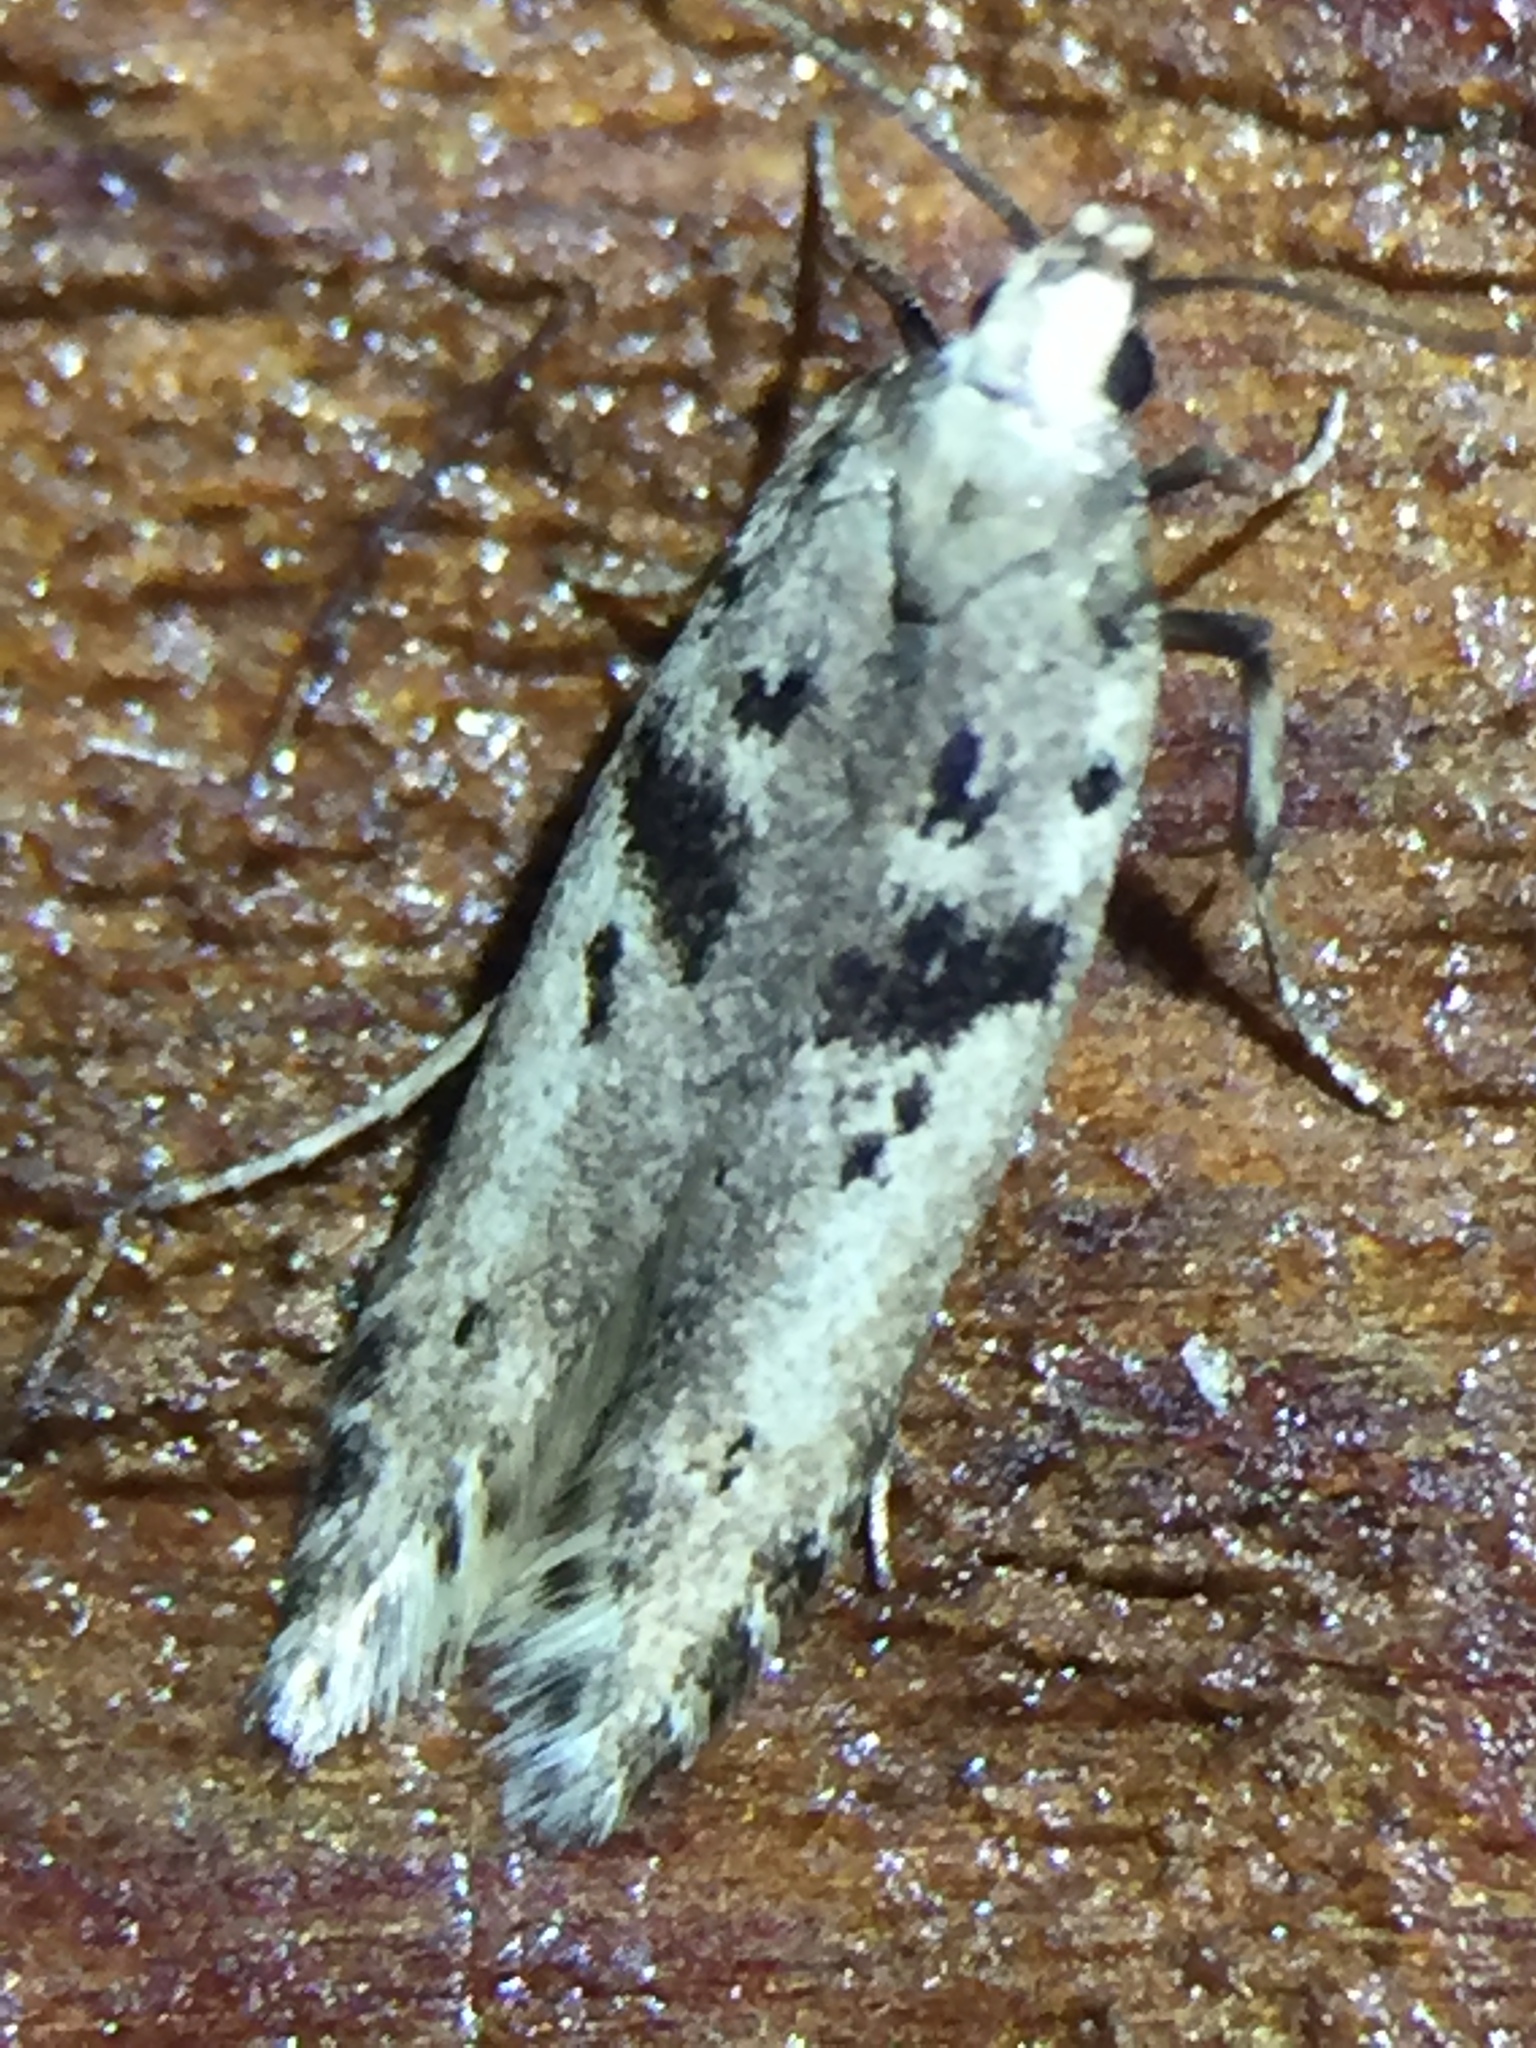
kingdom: Animalia
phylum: Arthropoda
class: Insecta
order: Lepidoptera
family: Gelechiidae
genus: Aristotelia
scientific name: Aristotelia paradesma
